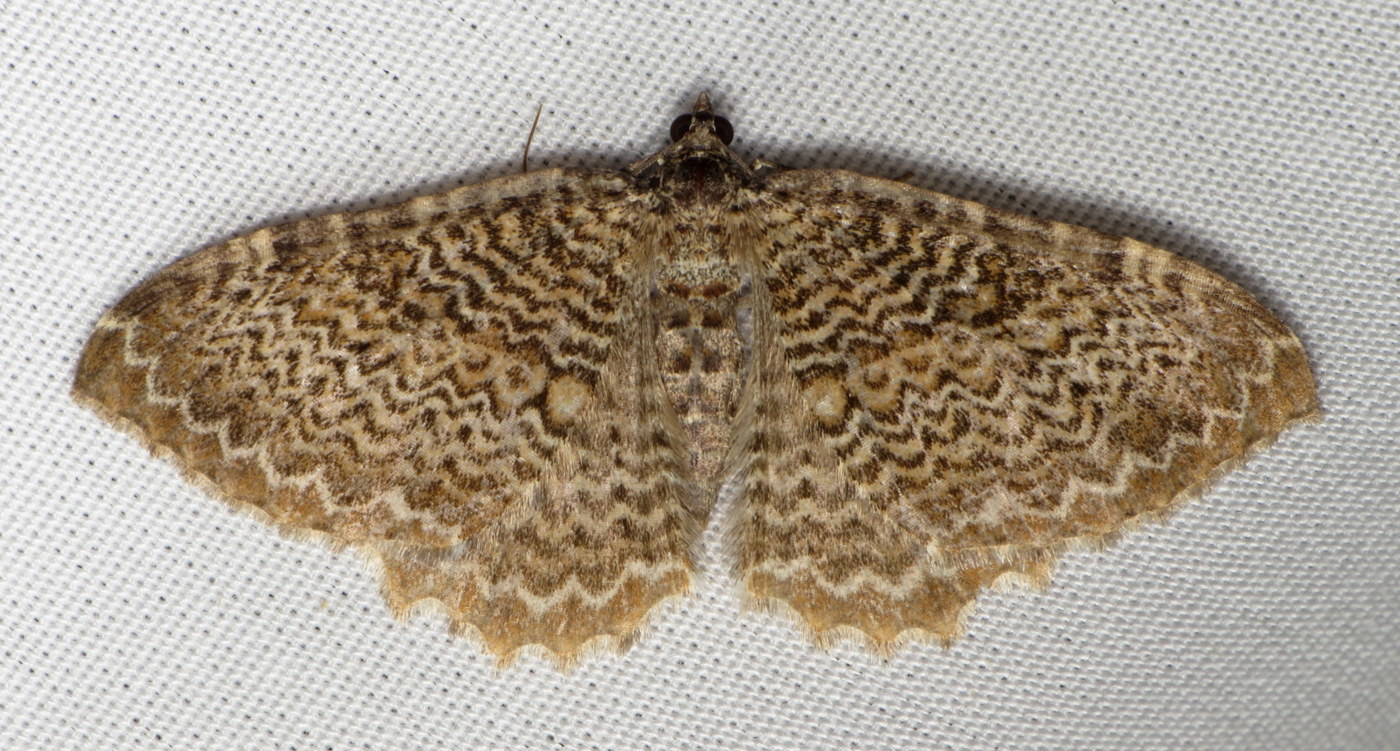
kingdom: Animalia
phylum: Arthropoda
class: Insecta
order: Lepidoptera
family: Geometridae
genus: Rheumaptera
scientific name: Rheumaptera prunivorata
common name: Cherry scallop shell moth
